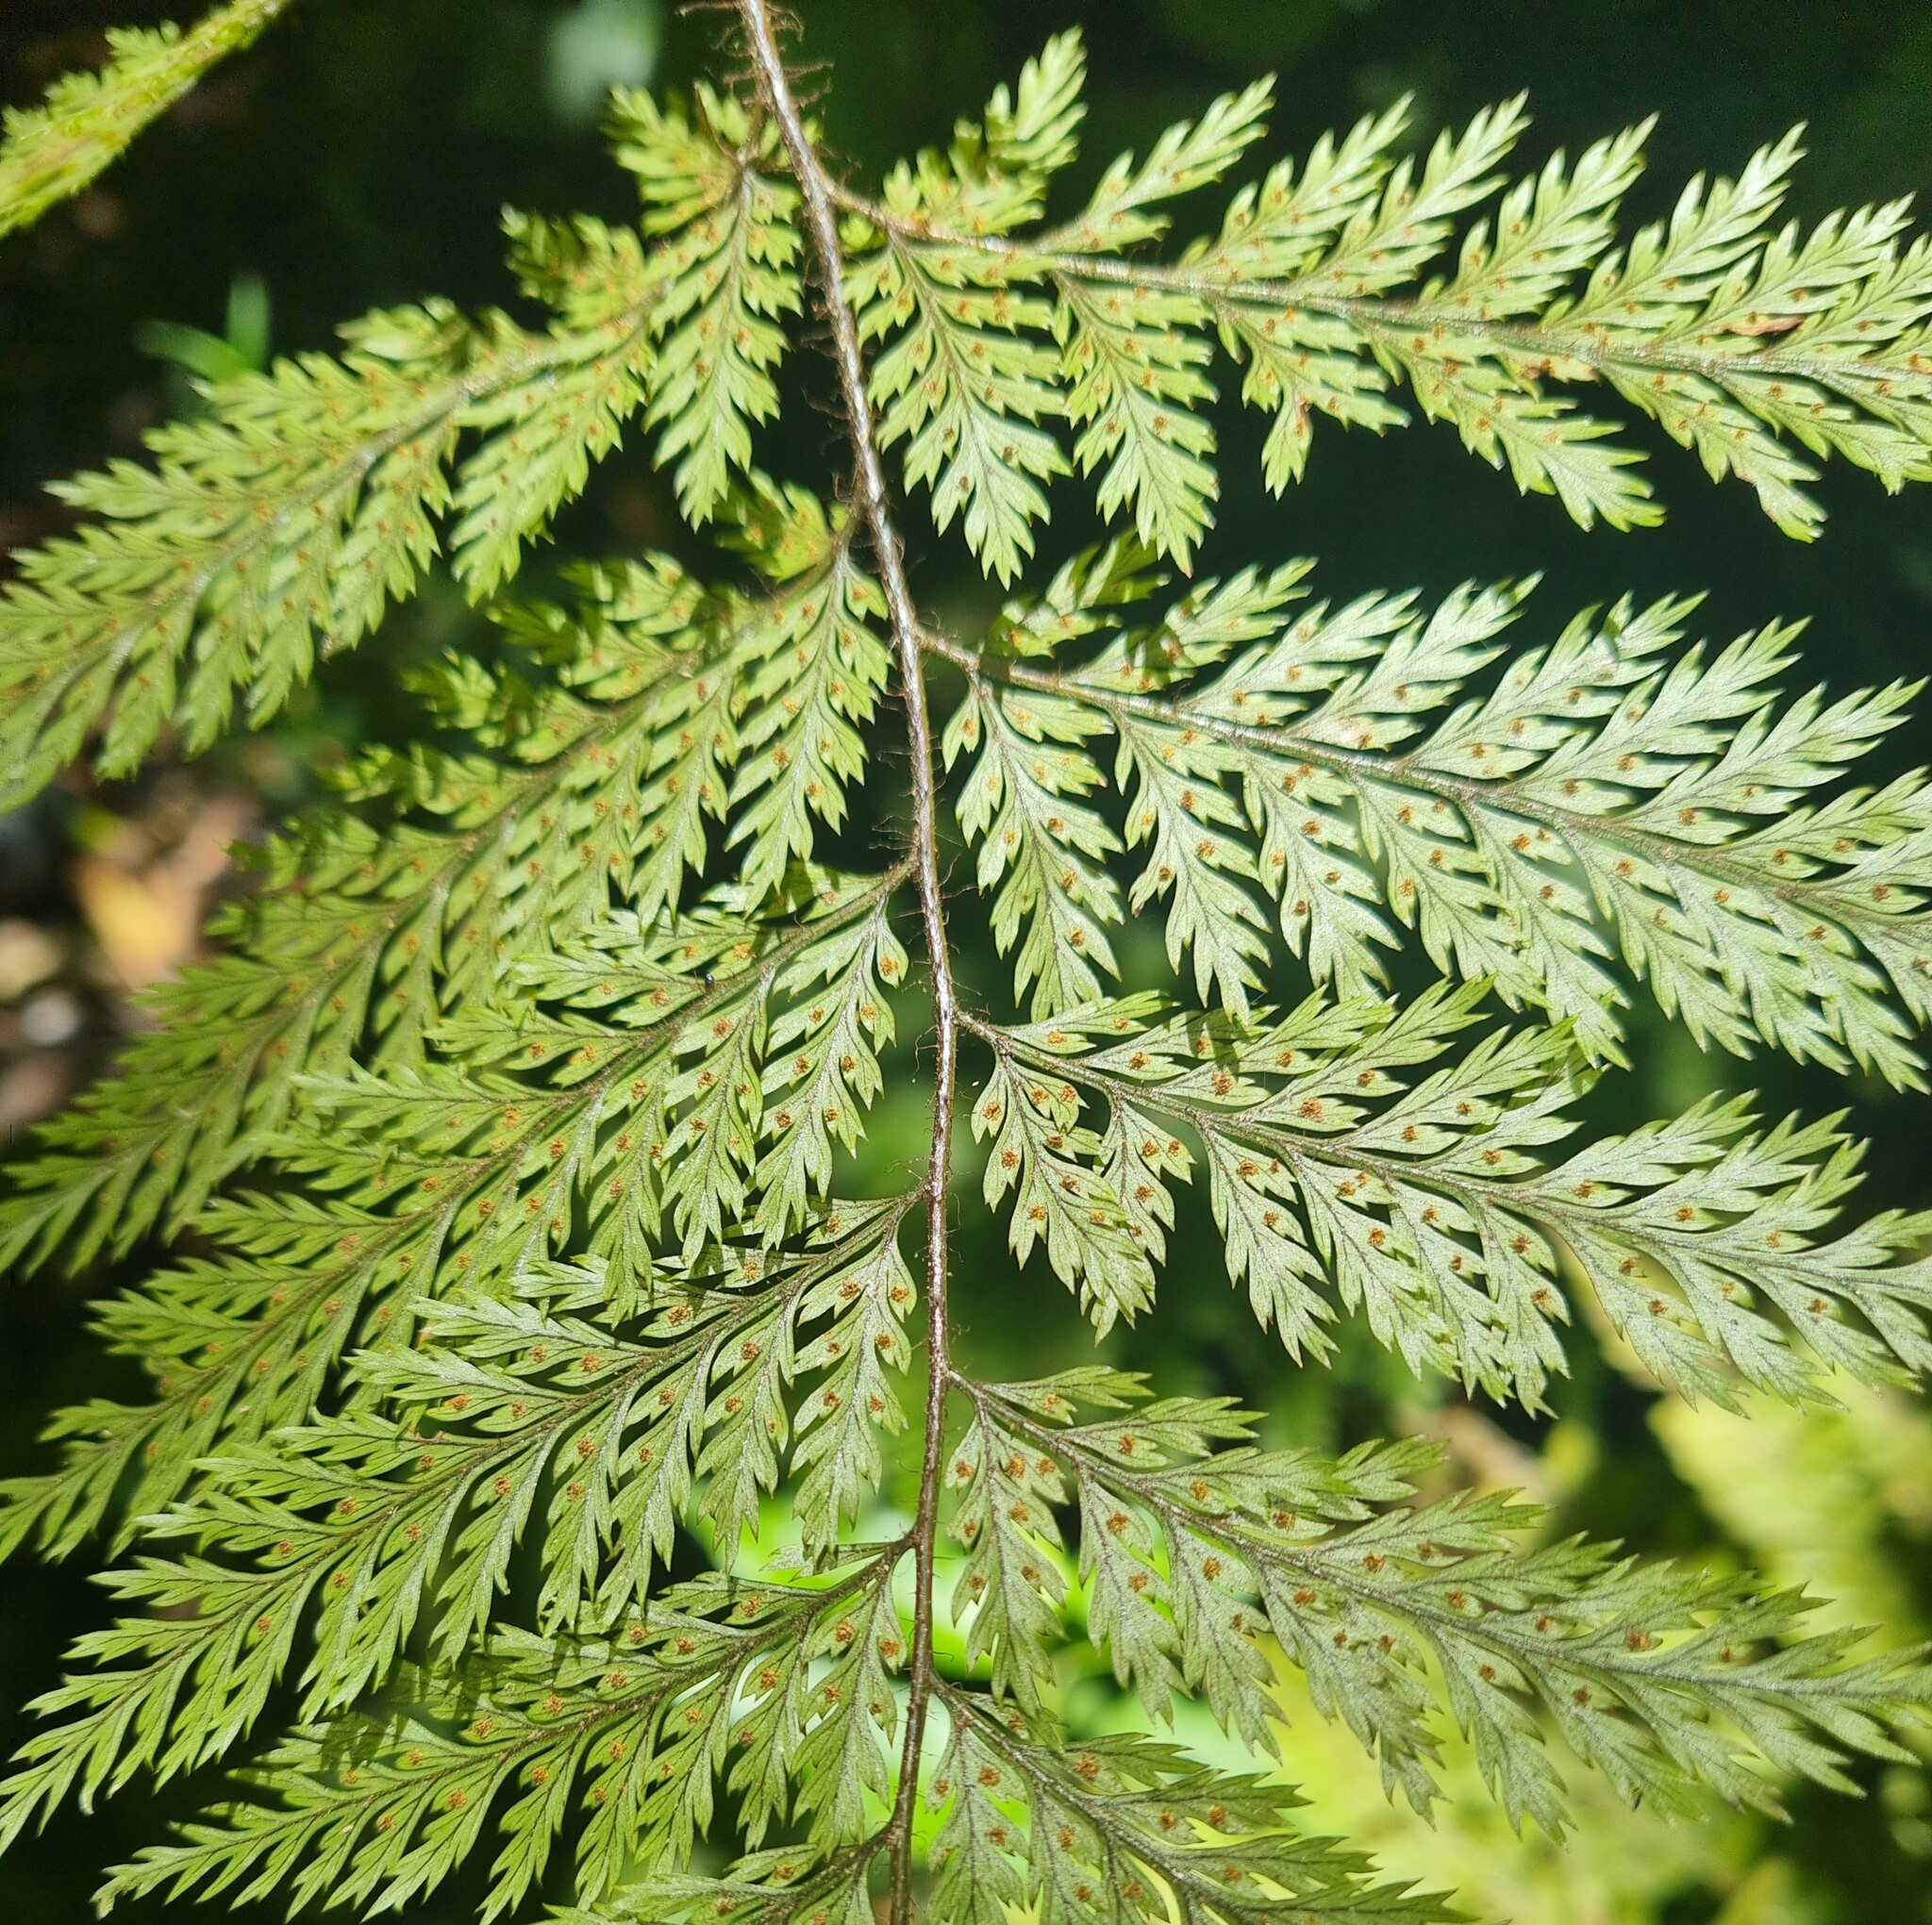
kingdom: Plantae
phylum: Tracheophyta
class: Polypodiopsida
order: Polypodiales
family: Dryopteridaceae
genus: Lastreopsis
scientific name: Lastreopsis hispida
